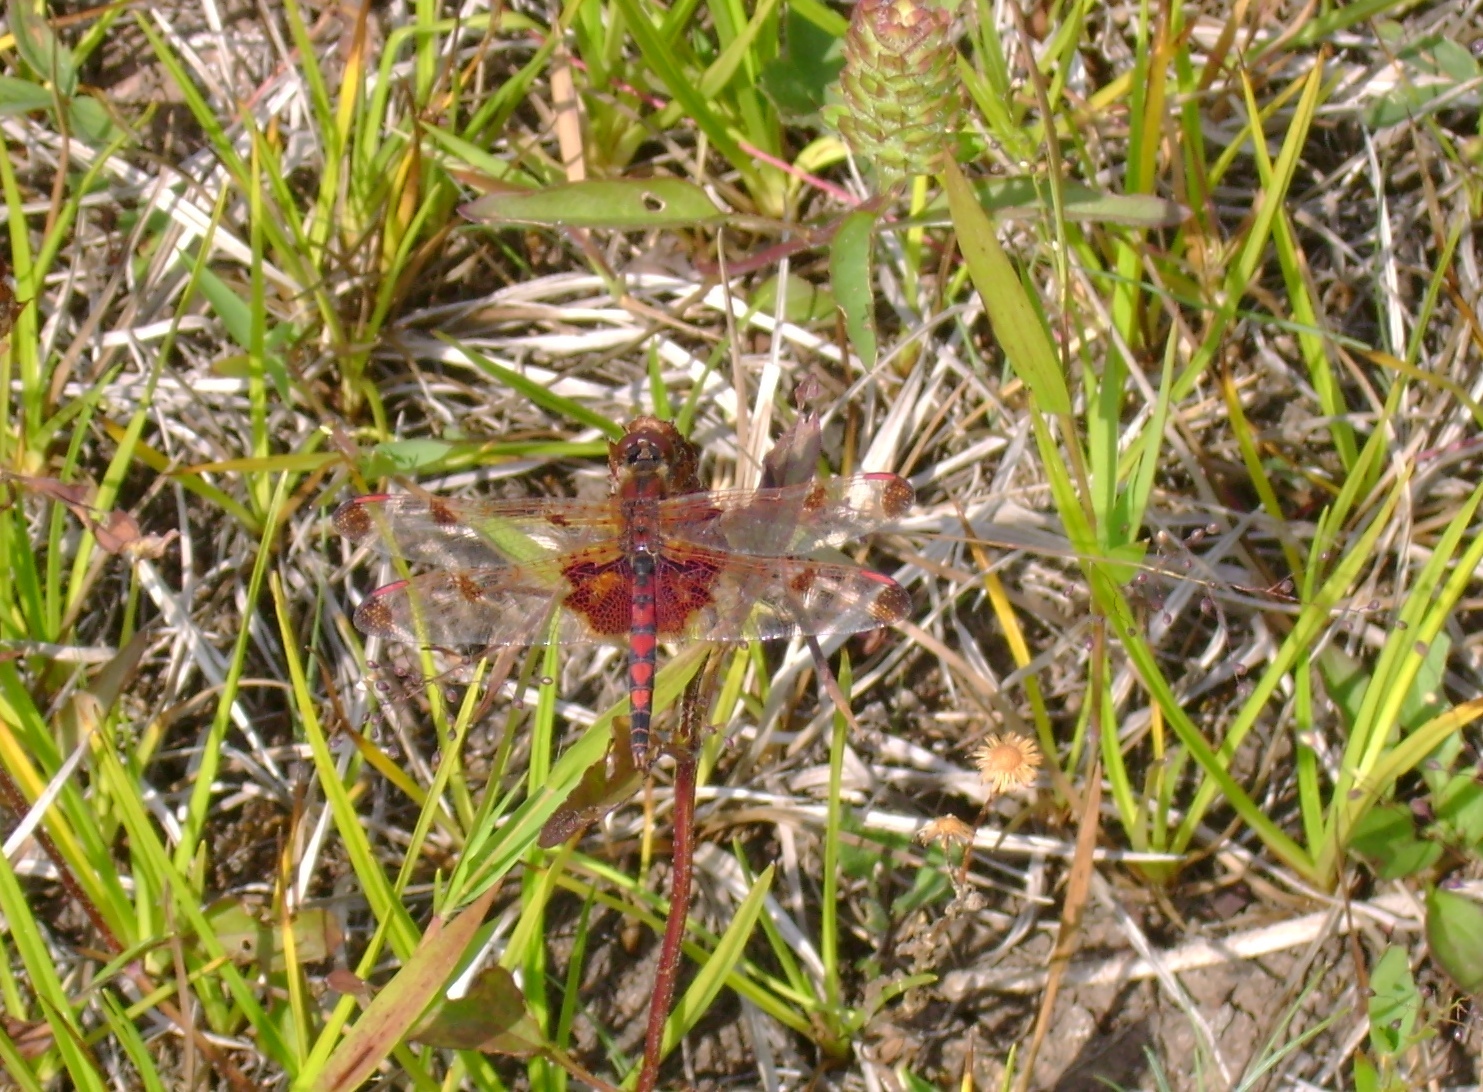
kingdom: Animalia
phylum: Arthropoda
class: Insecta
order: Odonata
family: Libellulidae
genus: Celithemis
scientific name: Celithemis elisa
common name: Calico pennant
